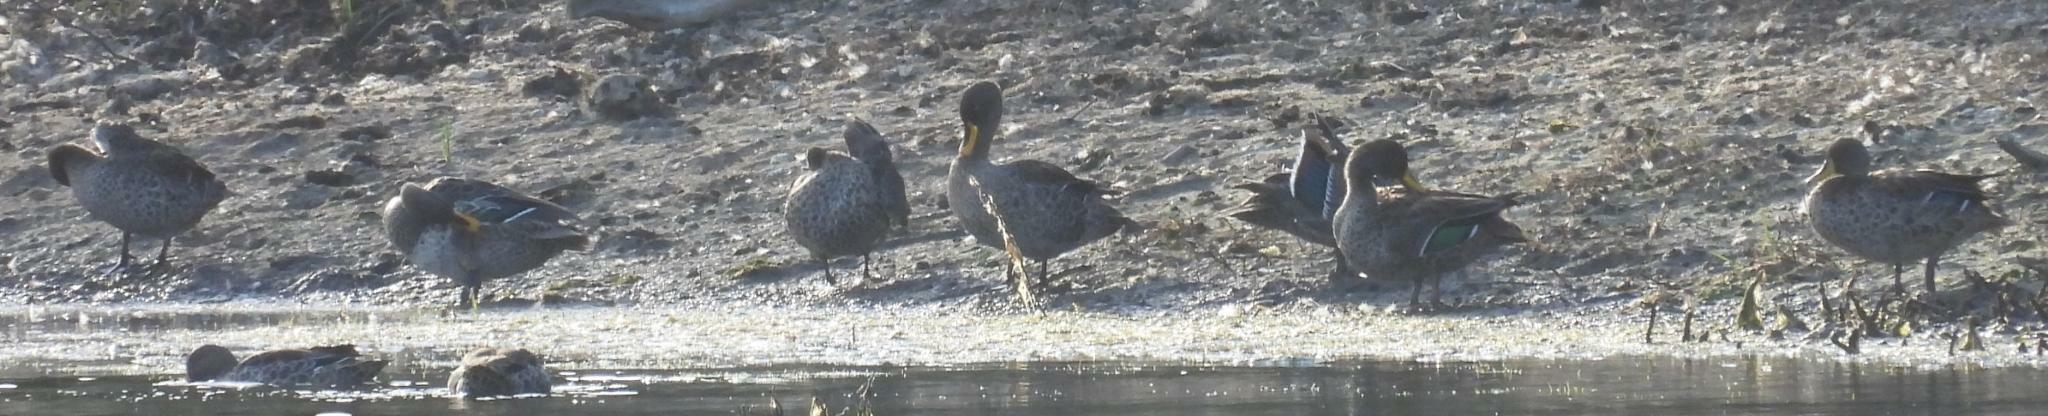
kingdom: Animalia
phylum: Chordata
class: Aves
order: Anseriformes
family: Anatidae
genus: Anas
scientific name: Anas undulata
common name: Yellow-billed duck
